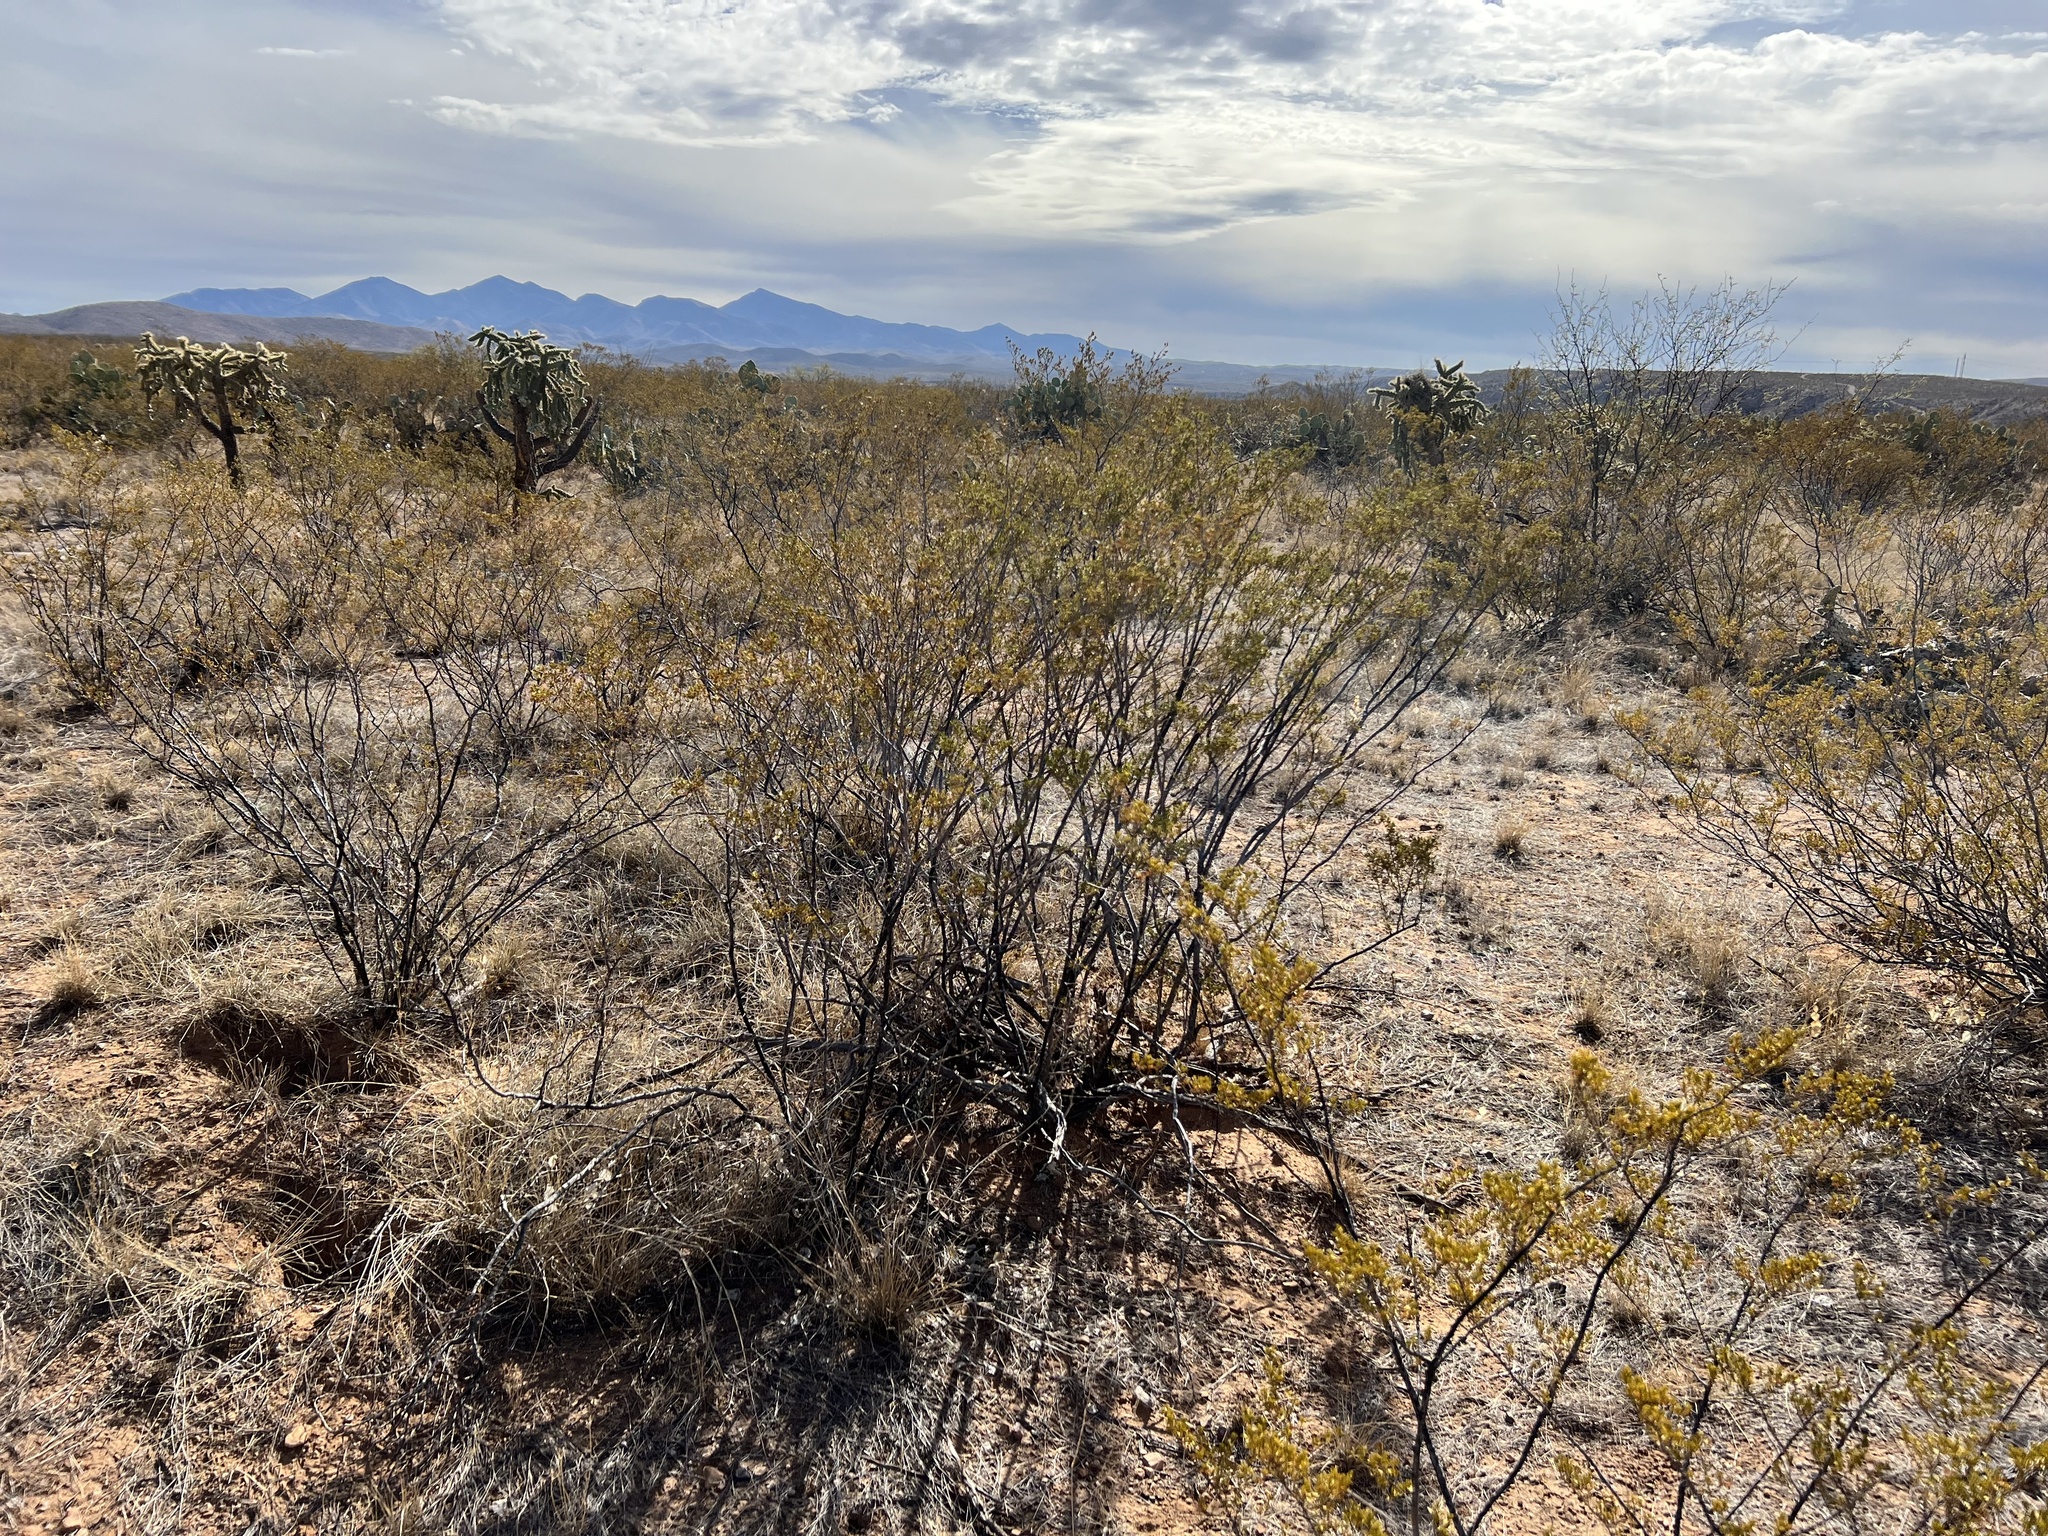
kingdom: Plantae
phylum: Tracheophyta
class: Magnoliopsida
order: Zygophyllales
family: Zygophyllaceae
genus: Larrea
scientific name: Larrea tridentata
